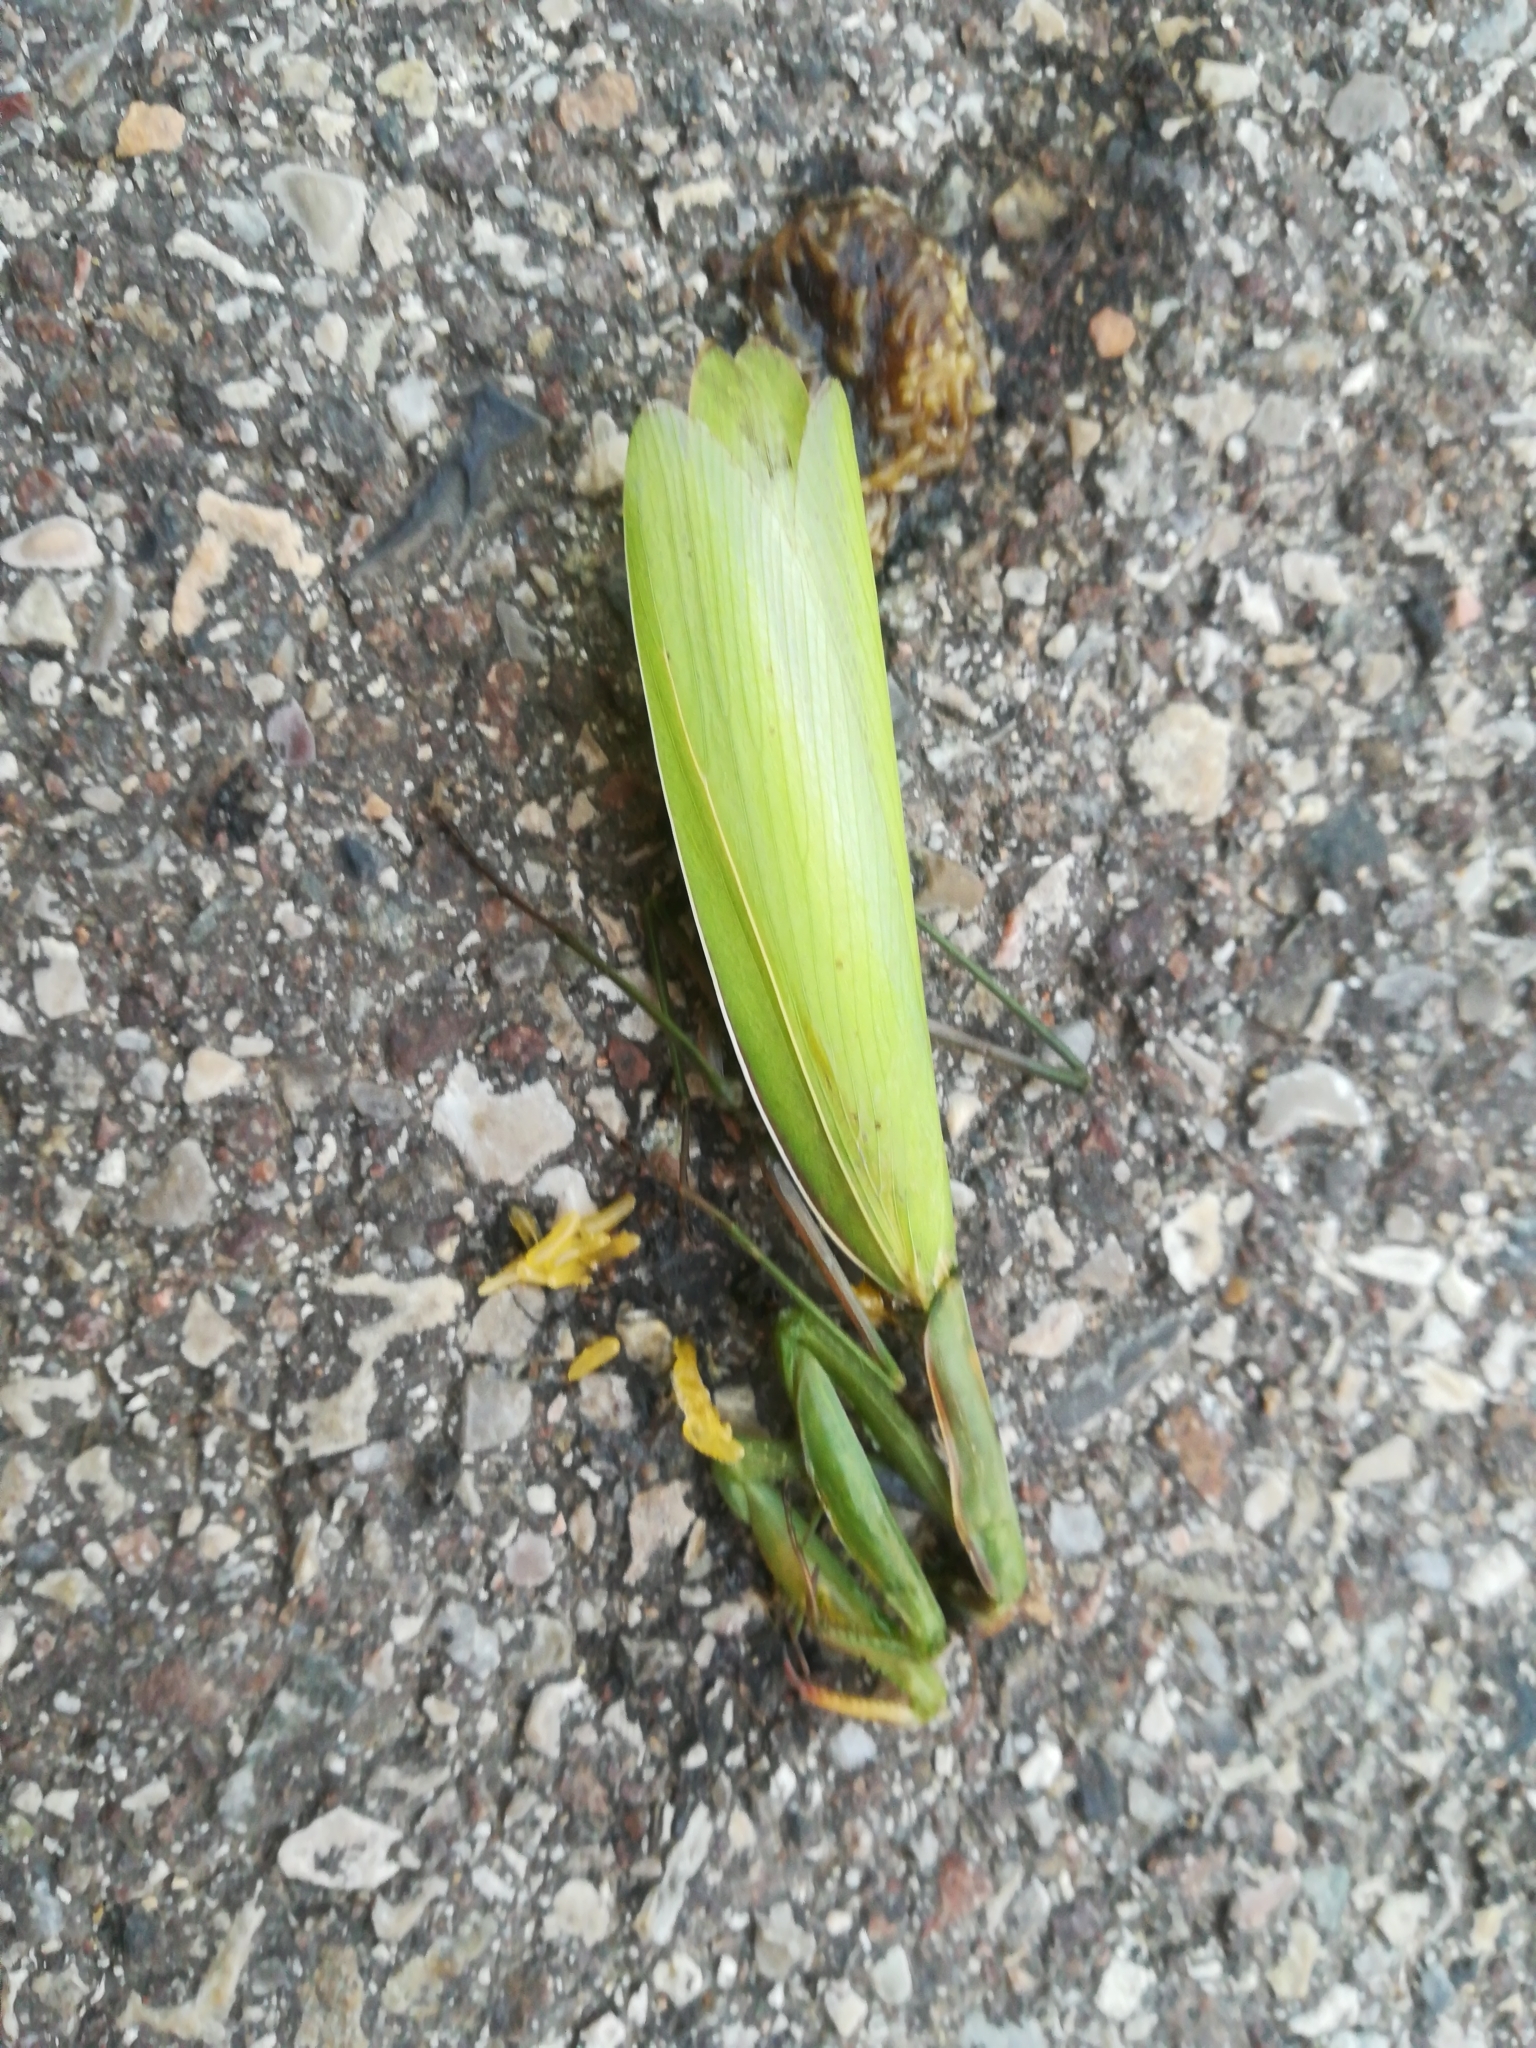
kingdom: Animalia
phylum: Arthropoda
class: Insecta
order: Mantodea
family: Mantidae
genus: Mantis
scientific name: Mantis religiosa
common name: Praying mantis
